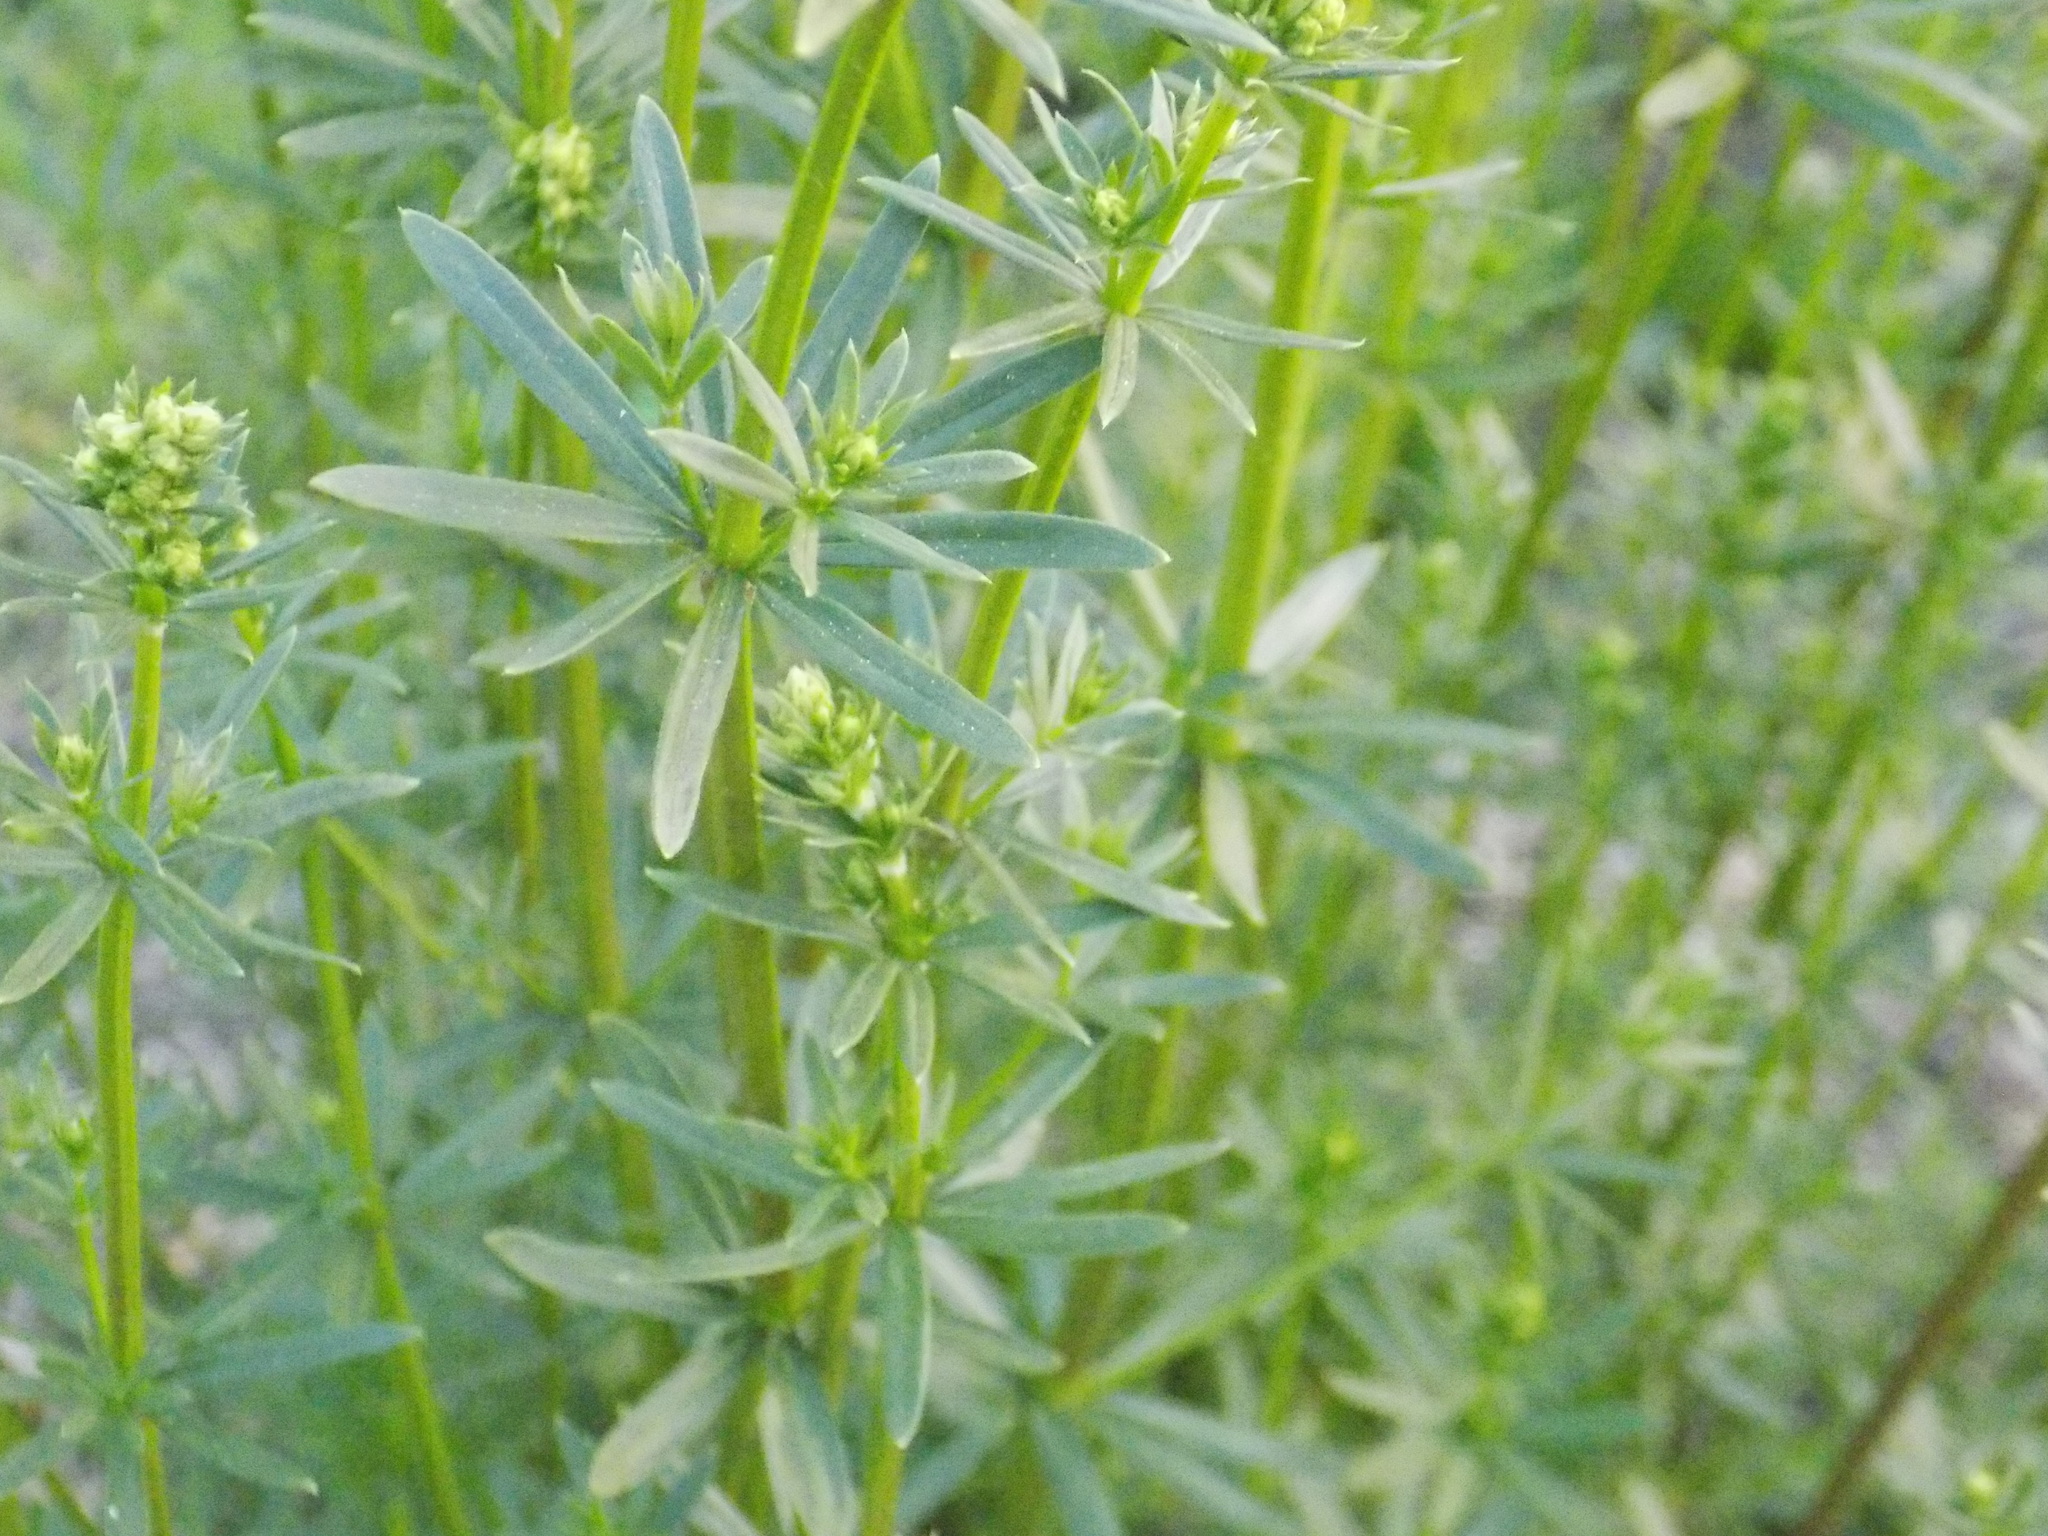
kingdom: Plantae
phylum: Tracheophyta
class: Magnoliopsida
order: Gentianales
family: Rubiaceae
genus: Galium
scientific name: Galium mollugo
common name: Hedge bedstraw
